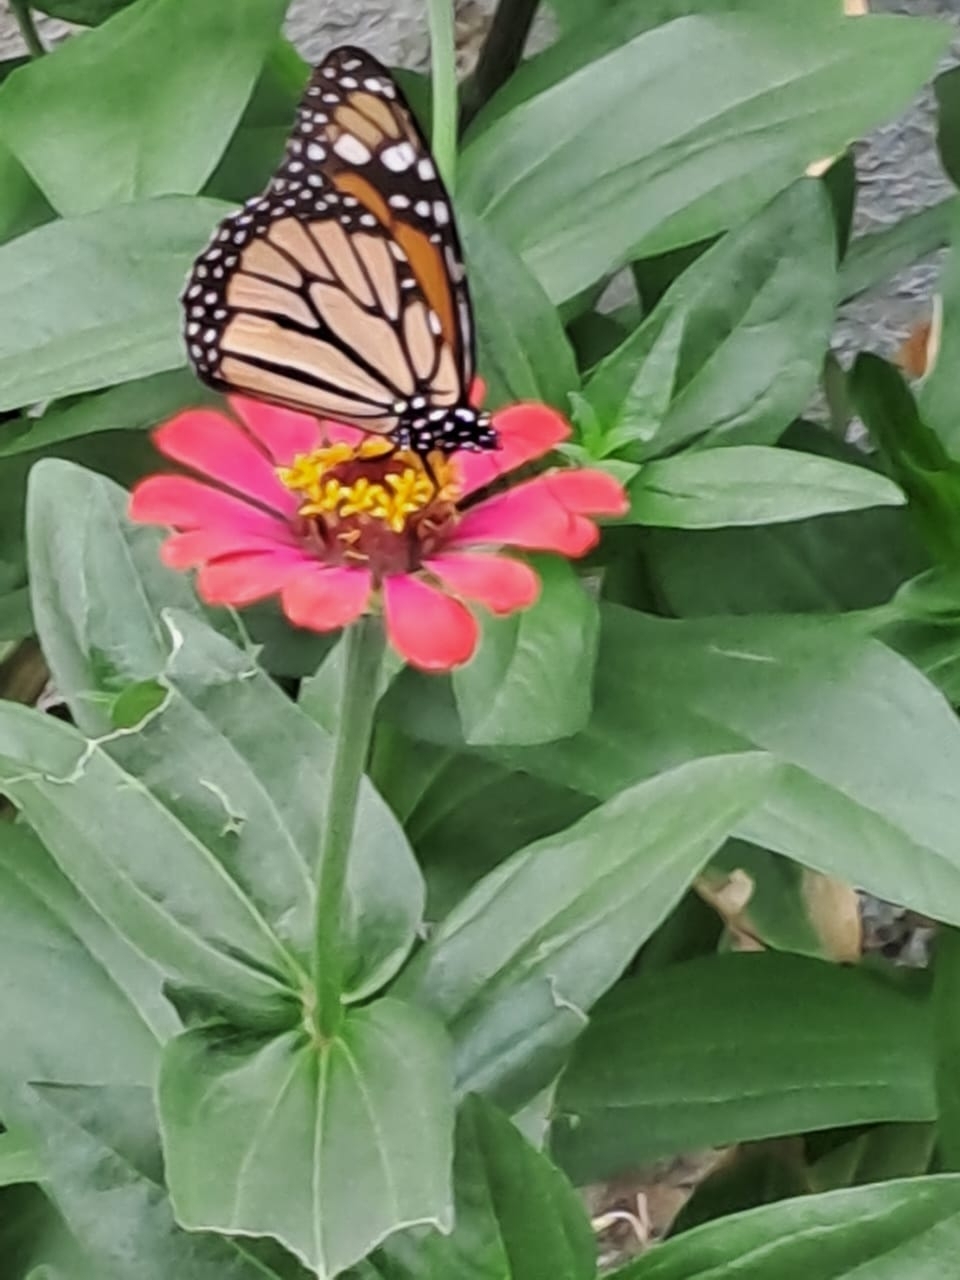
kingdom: Animalia
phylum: Arthropoda
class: Insecta
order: Lepidoptera
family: Nymphalidae
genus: Danaus
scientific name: Danaus plexippus
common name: Monarch
